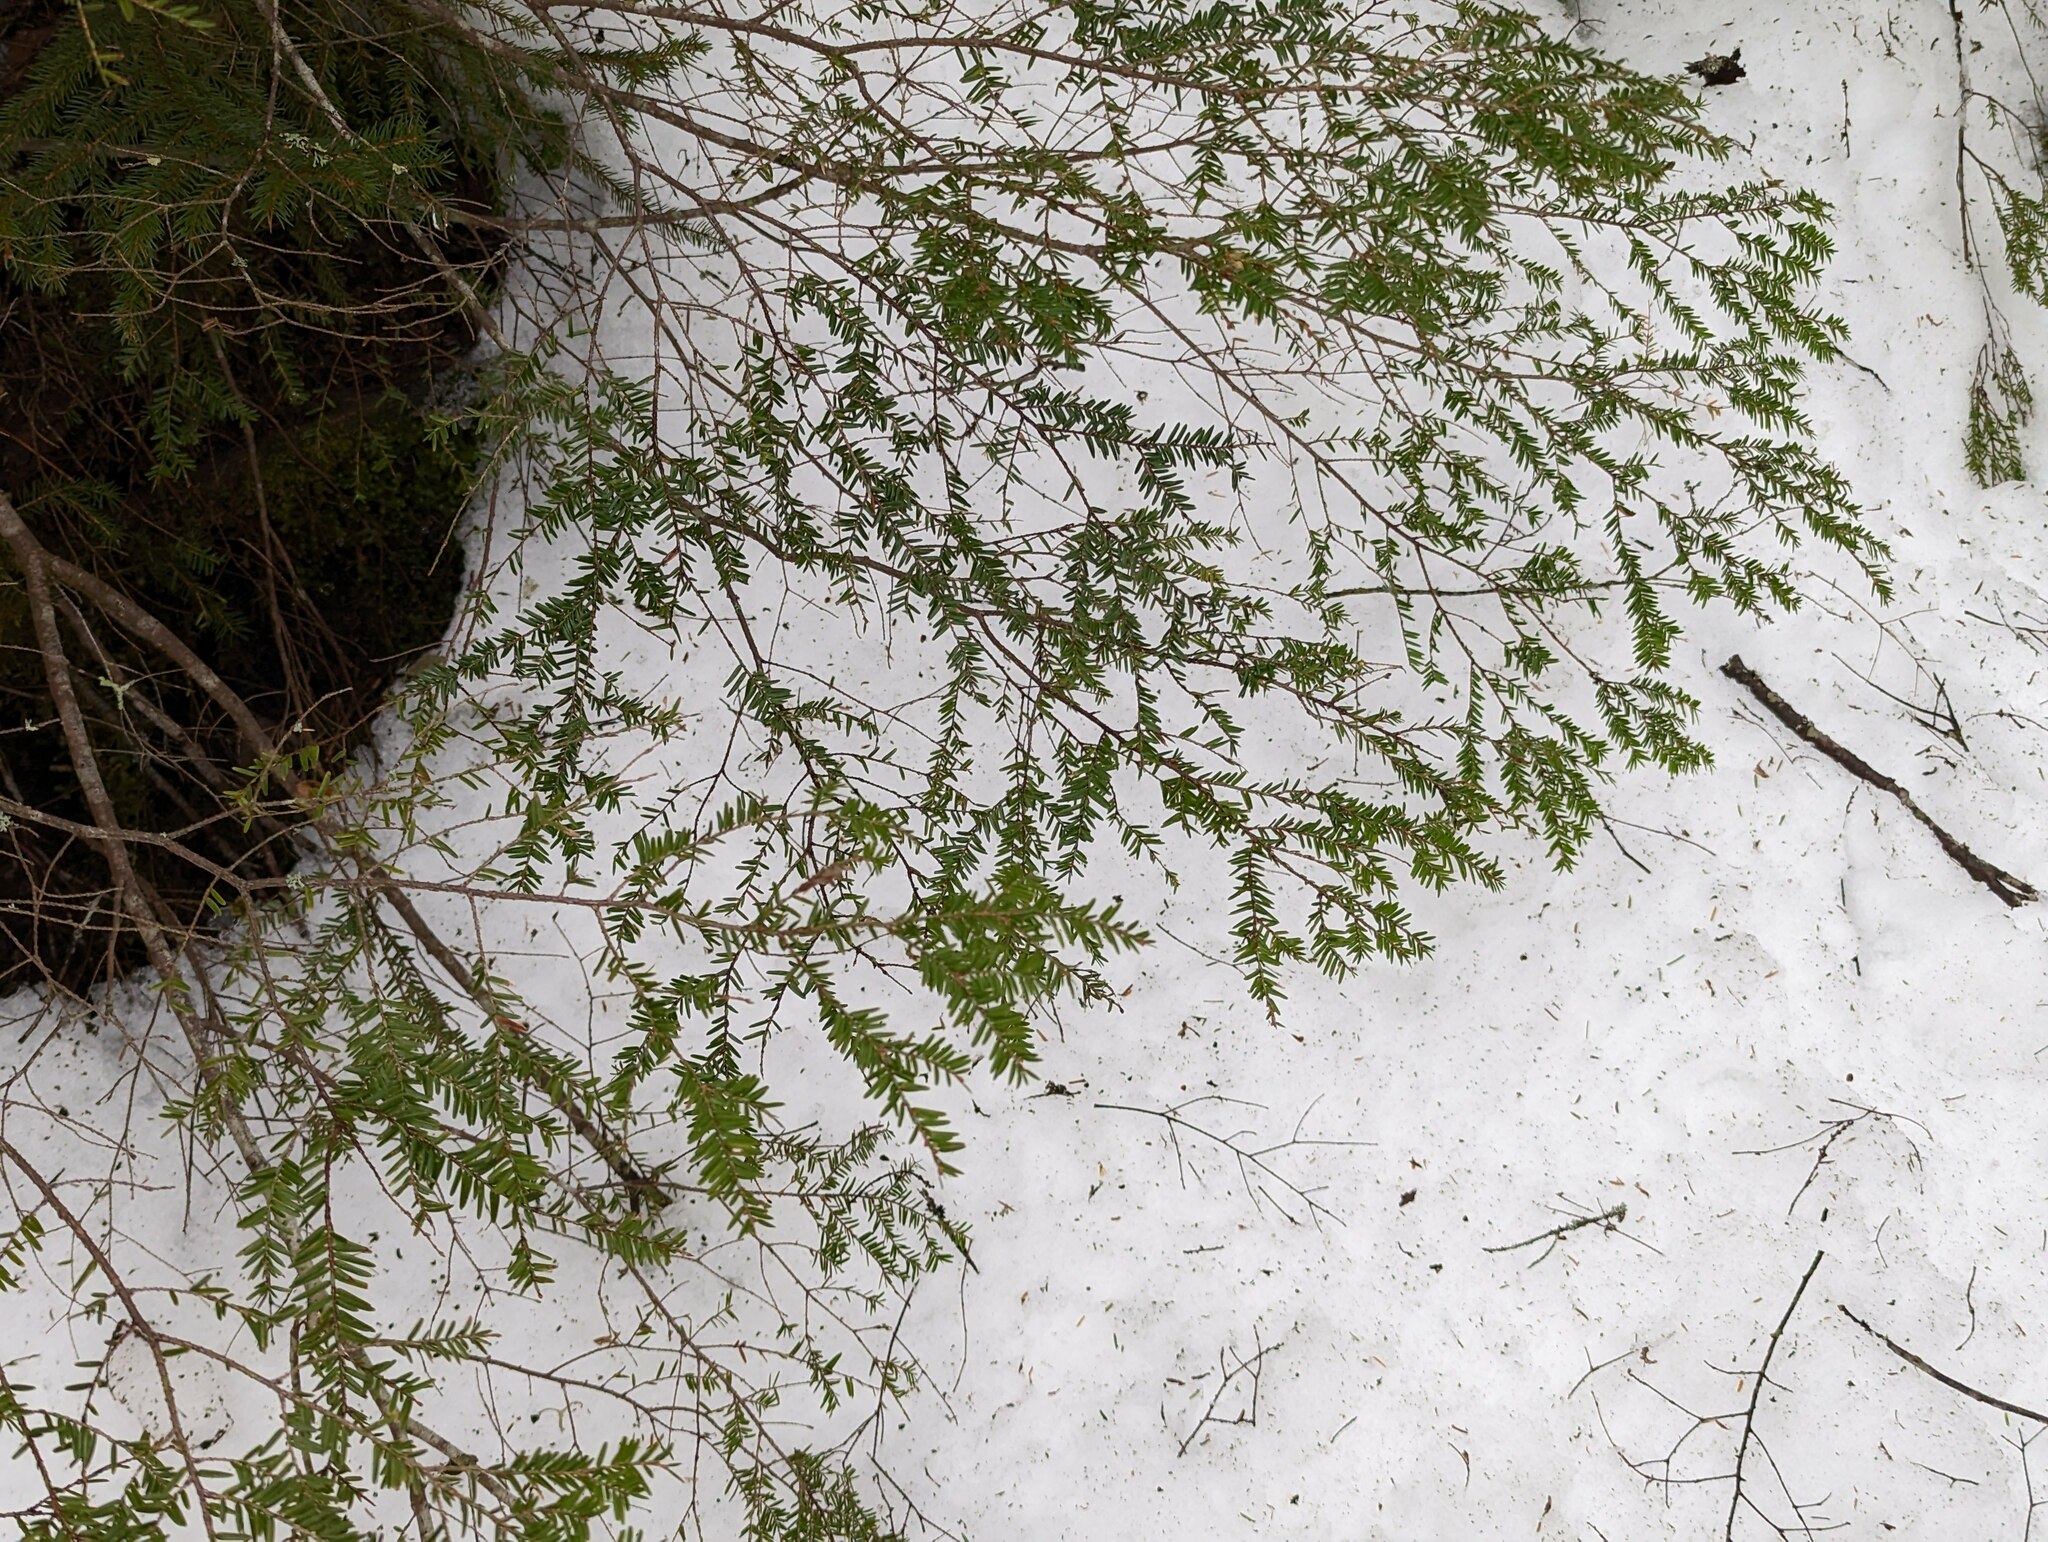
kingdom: Plantae
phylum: Tracheophyta
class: Pinopsida
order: Pinales
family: Pinaceae
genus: Tsuga
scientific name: Tsuga canadensis
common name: Eastern hemlock
